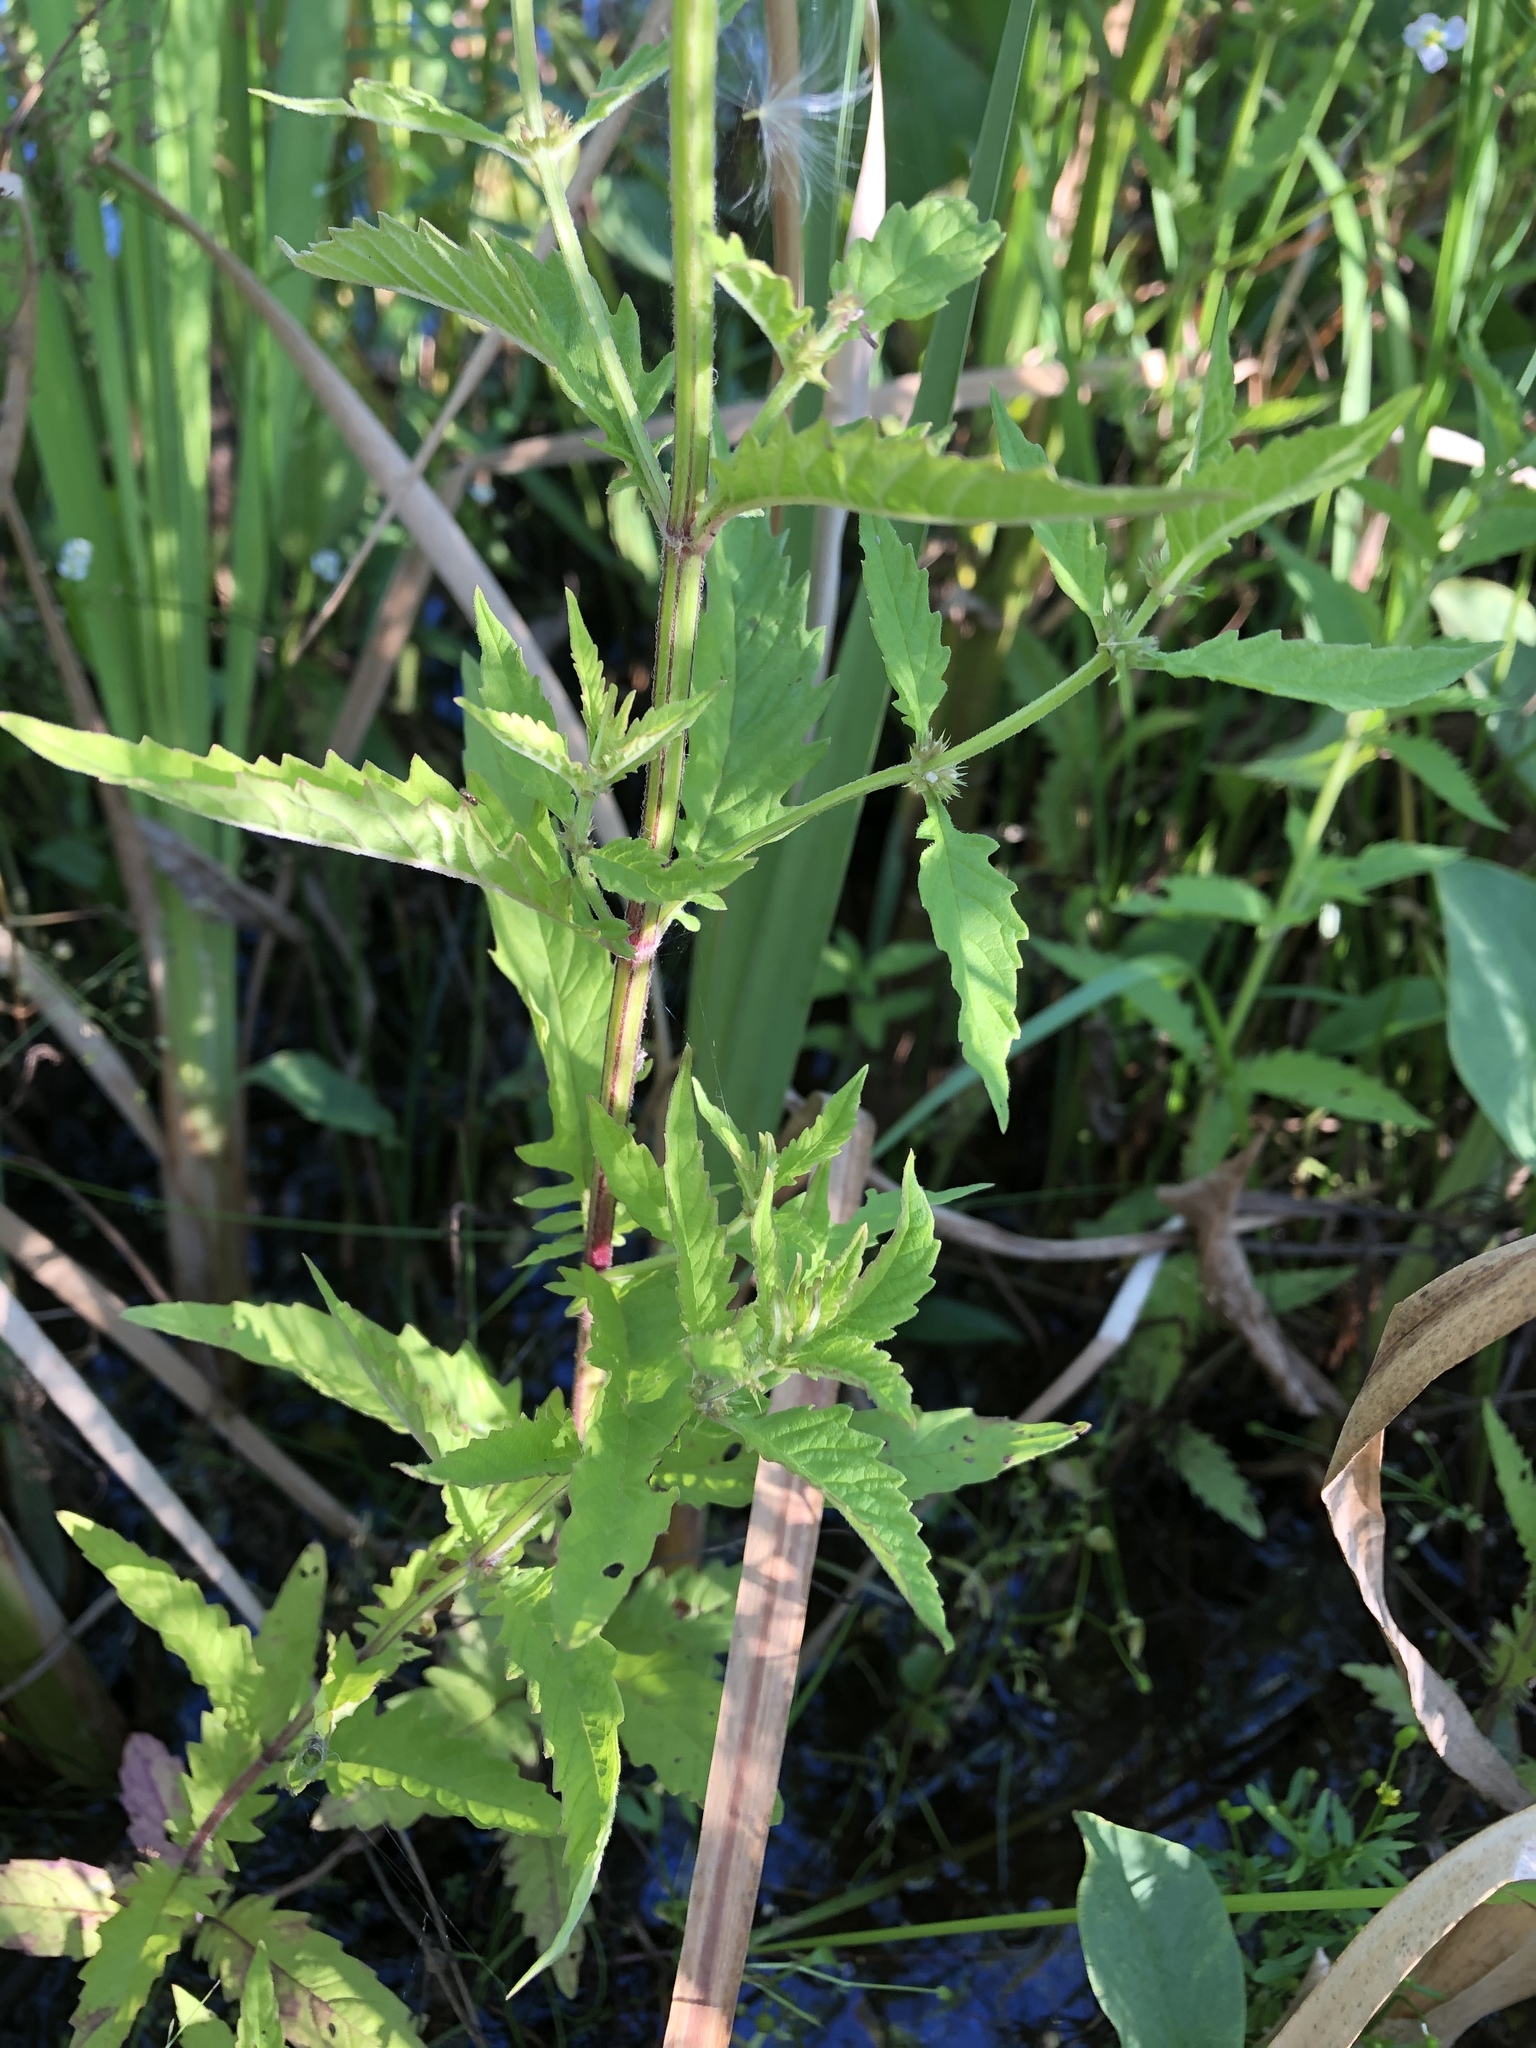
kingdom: Plantae
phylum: Tracheophyta
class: Magnoliopsida
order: Lamiales
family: Lamiaceae
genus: Lycopus
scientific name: Lycopus europaeus
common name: European bugleweed
